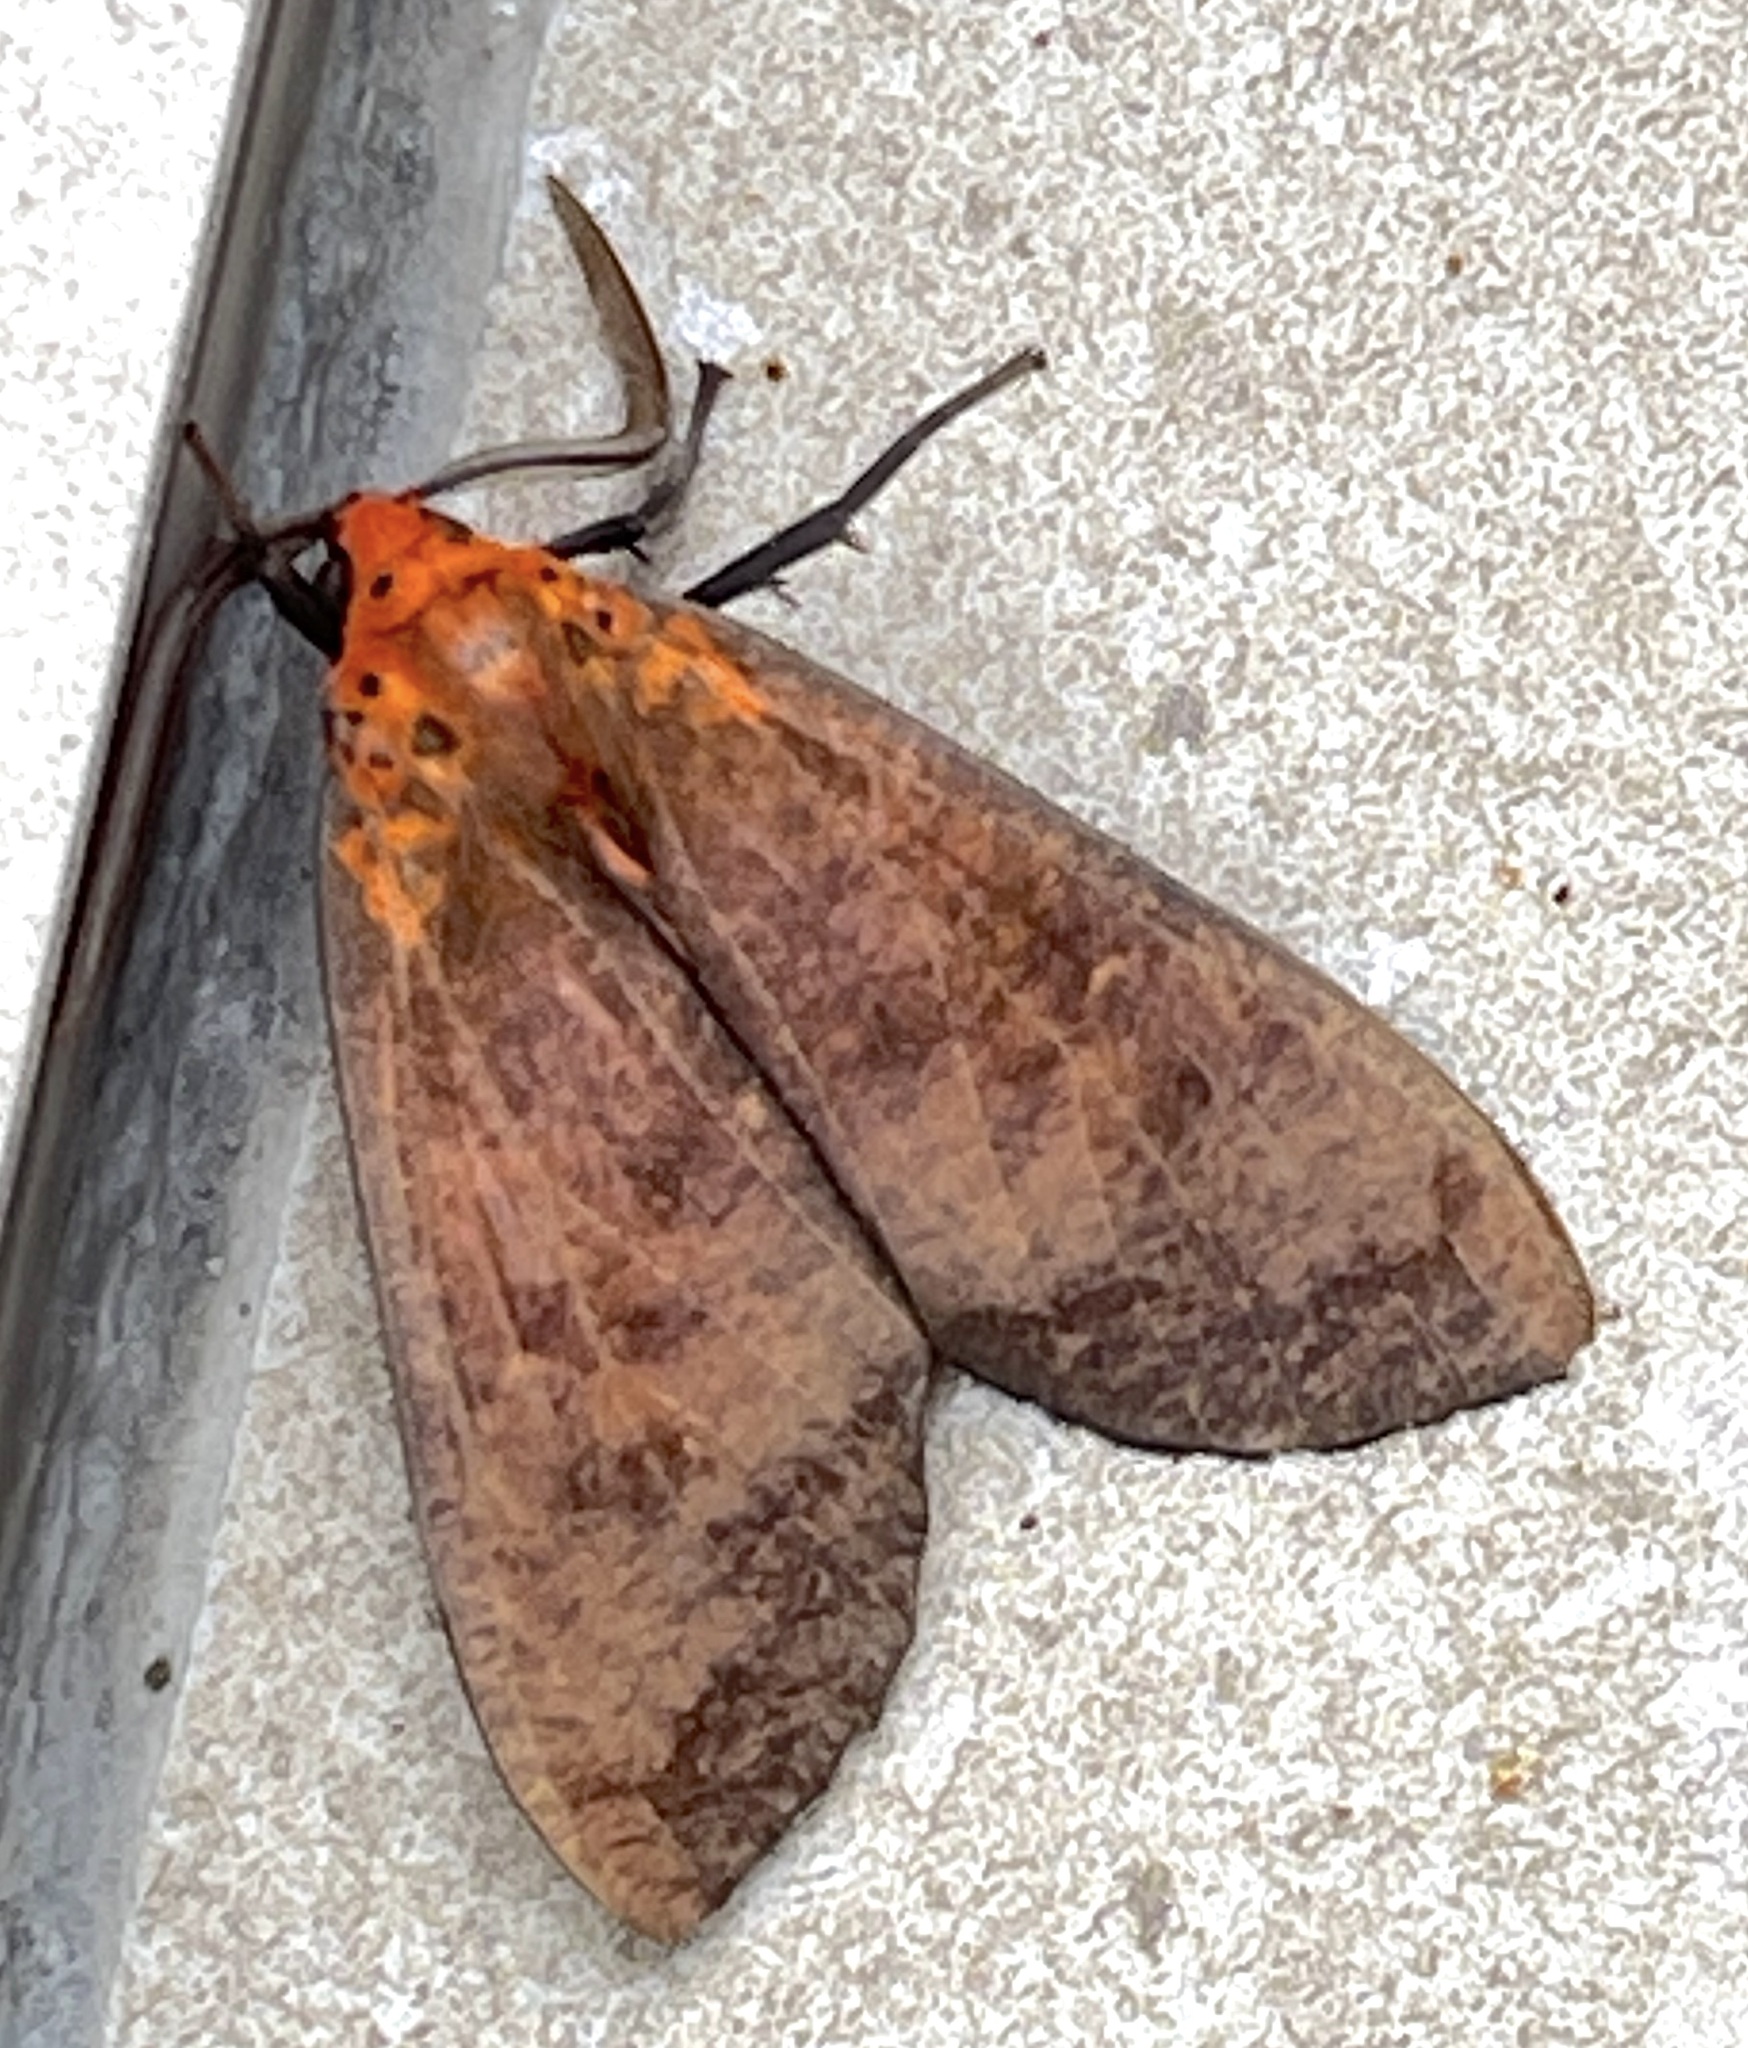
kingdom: Animalia
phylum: Arthropoda
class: Insecta
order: Lepidoptera
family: Erebidae
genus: Ammalo
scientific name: Ammalo helops
